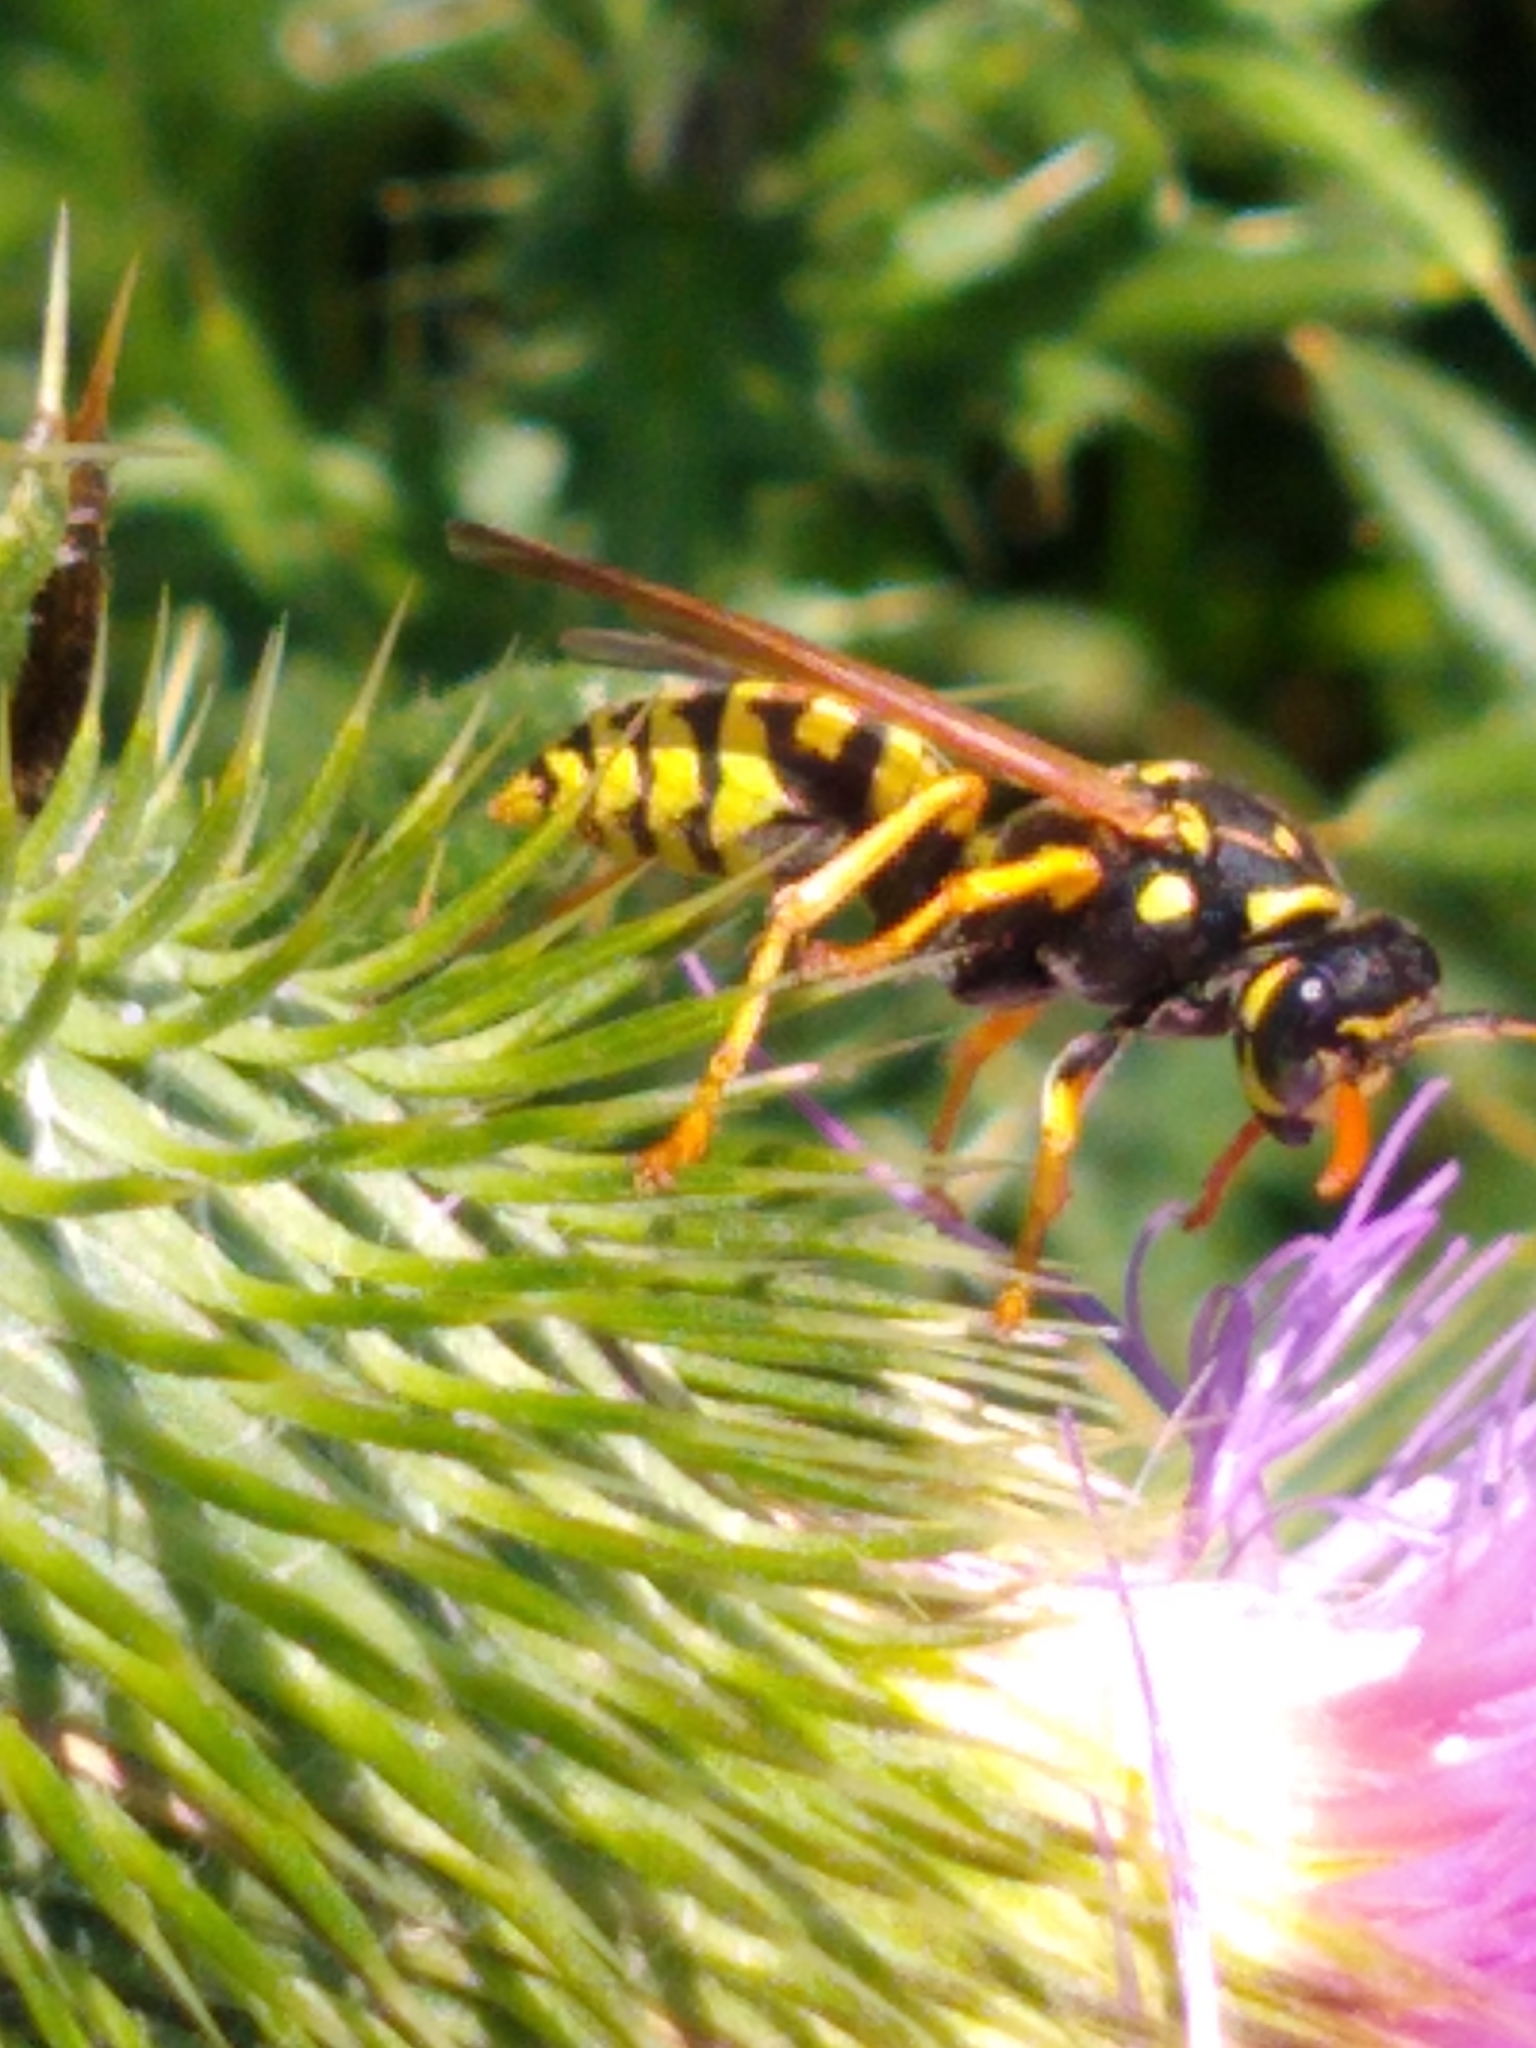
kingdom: Animalia
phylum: Arthropoda
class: Insecta
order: Hymenoptera
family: Eumenidae
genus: Polistes
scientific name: Polistes dominula
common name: Paper wasp
